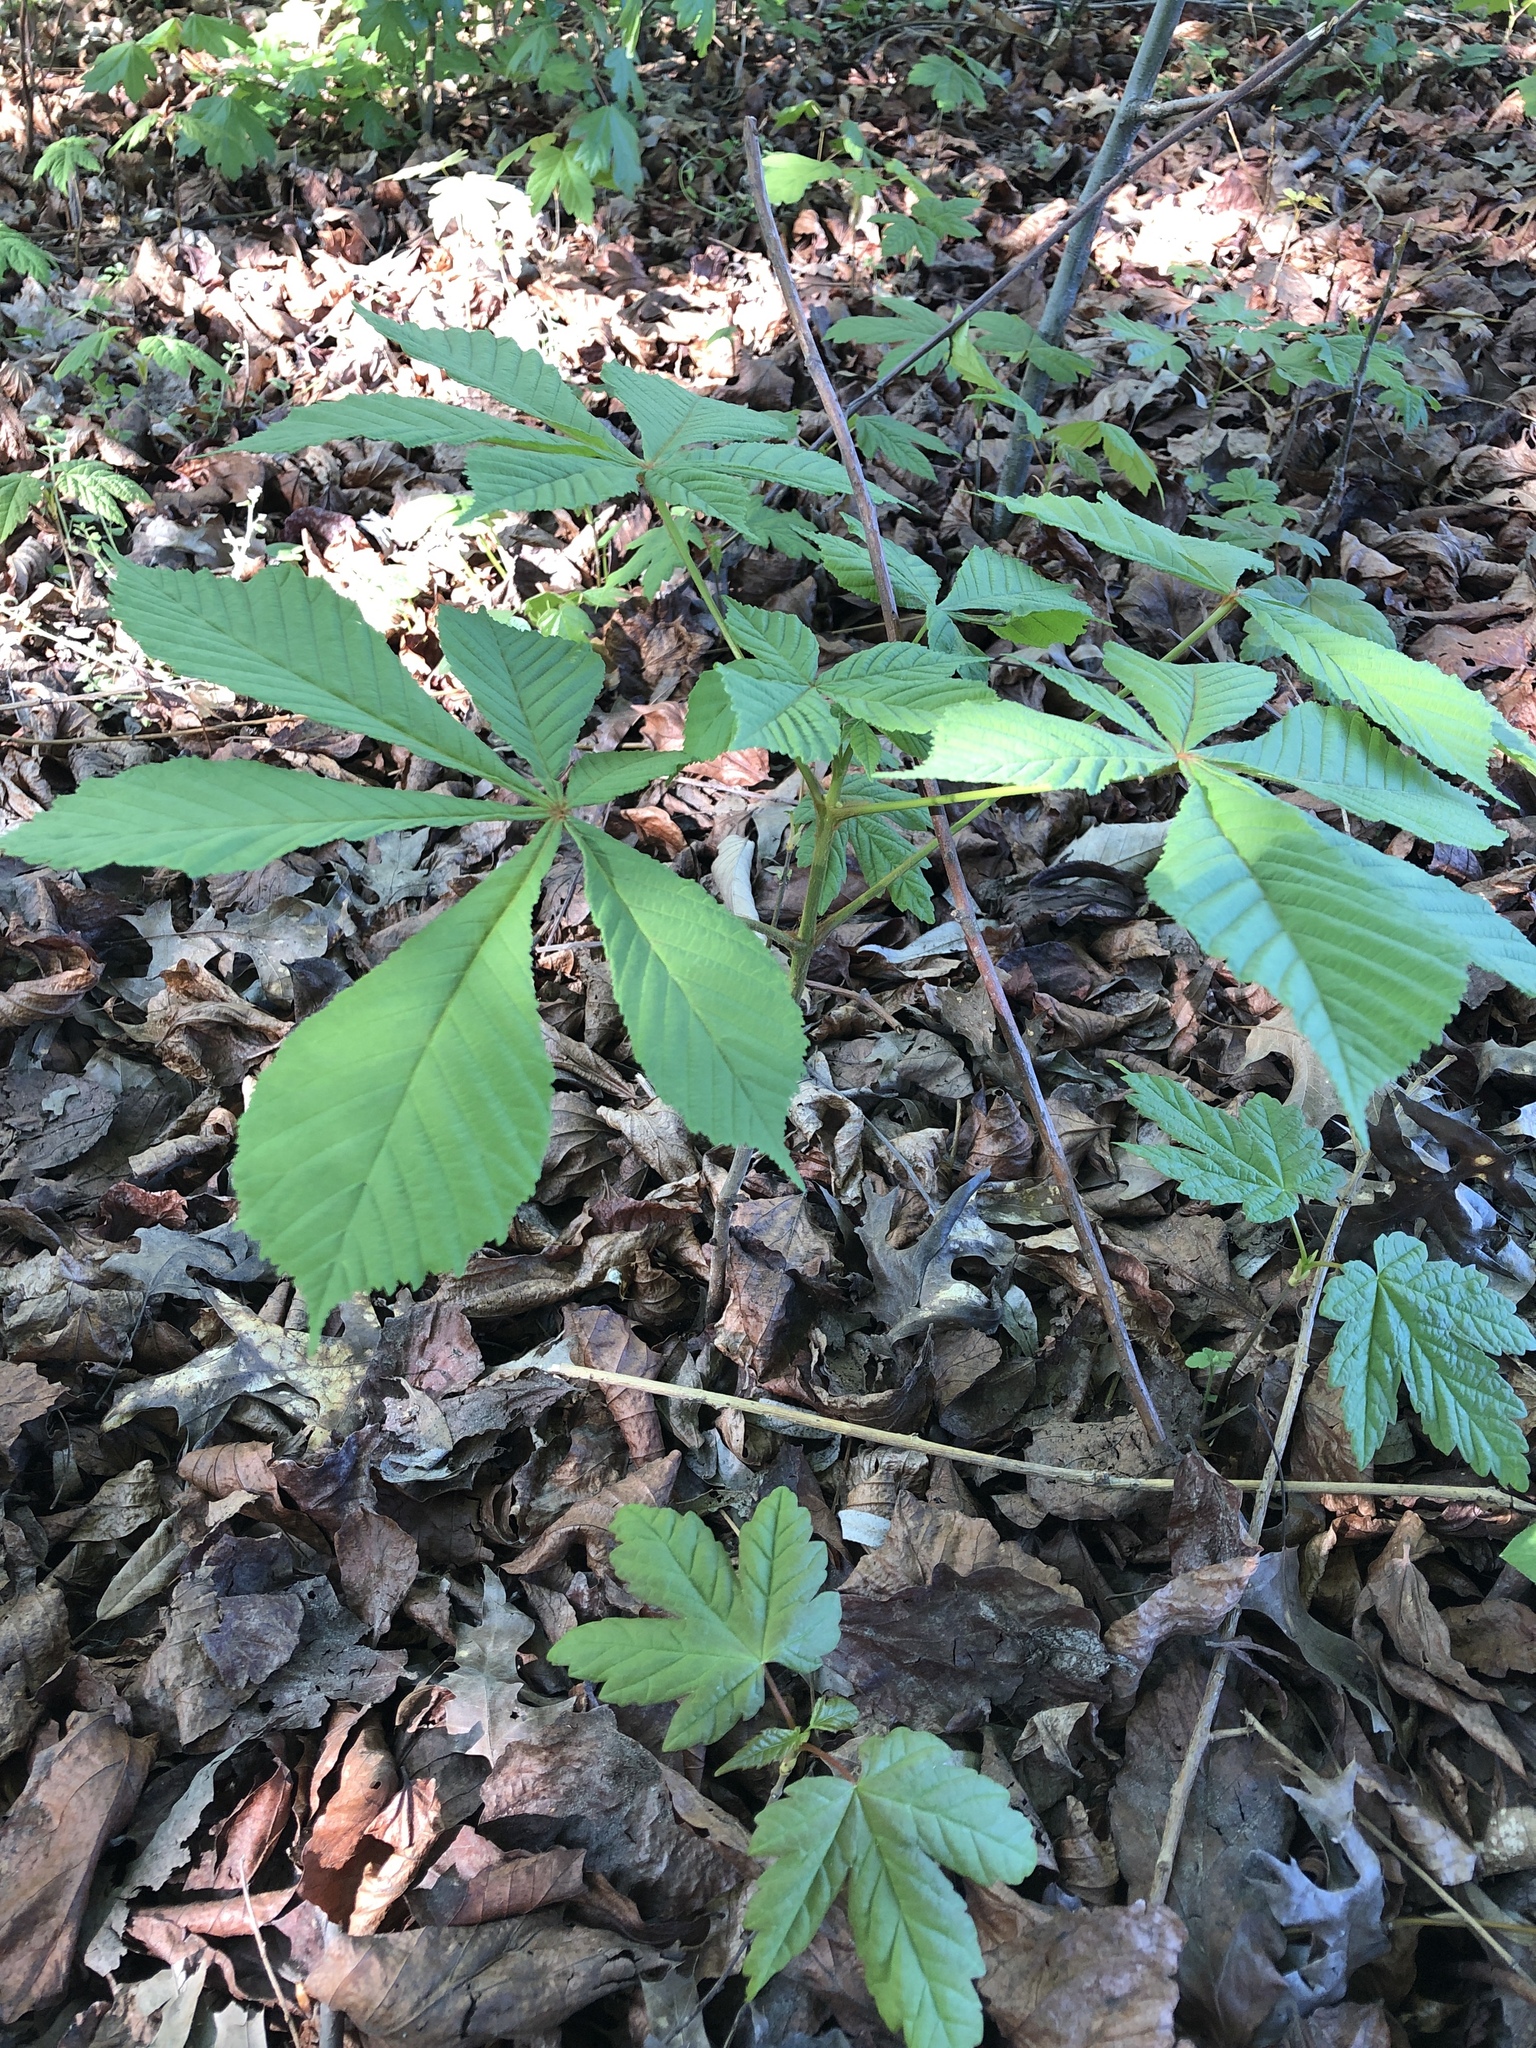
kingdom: Plantae
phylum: Tracheophyta
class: Magnoliopsida
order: Sapindales
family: Sapindaceae
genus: Aesculus
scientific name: Aesculus hippocastanum
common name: Horse-chestnut
